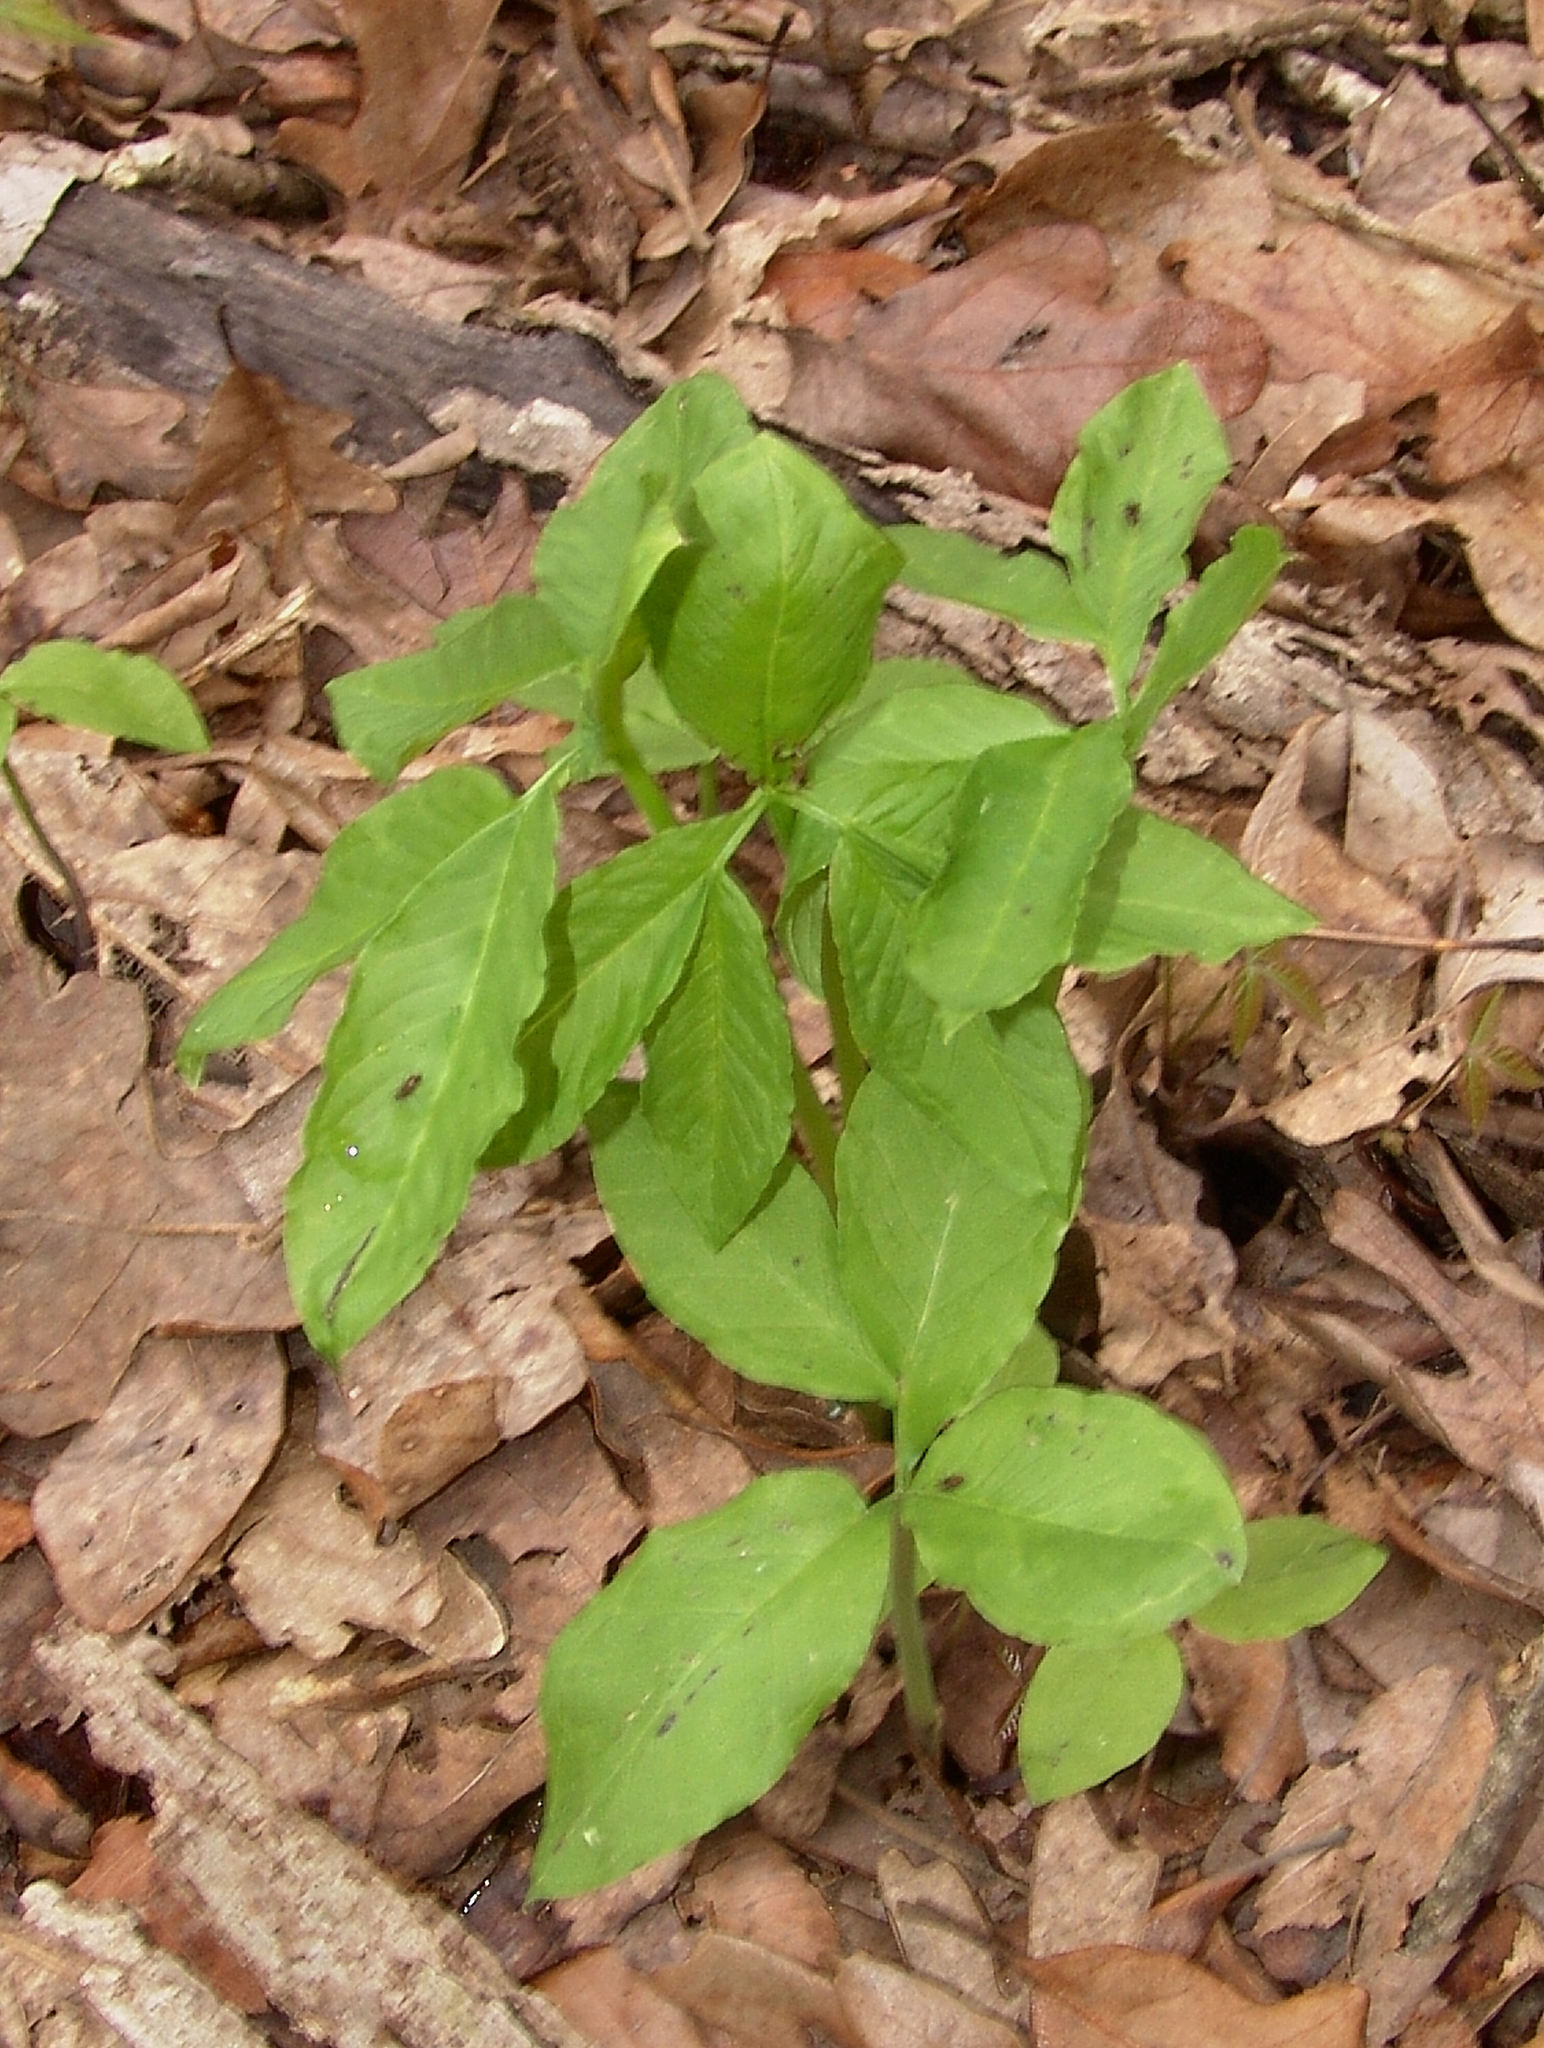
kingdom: Plantae
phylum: Tracheophyta
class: Liliopsida
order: Alismatales
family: Araceae
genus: Arisaema
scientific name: Arisaema dracontium
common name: Dragon-arum
